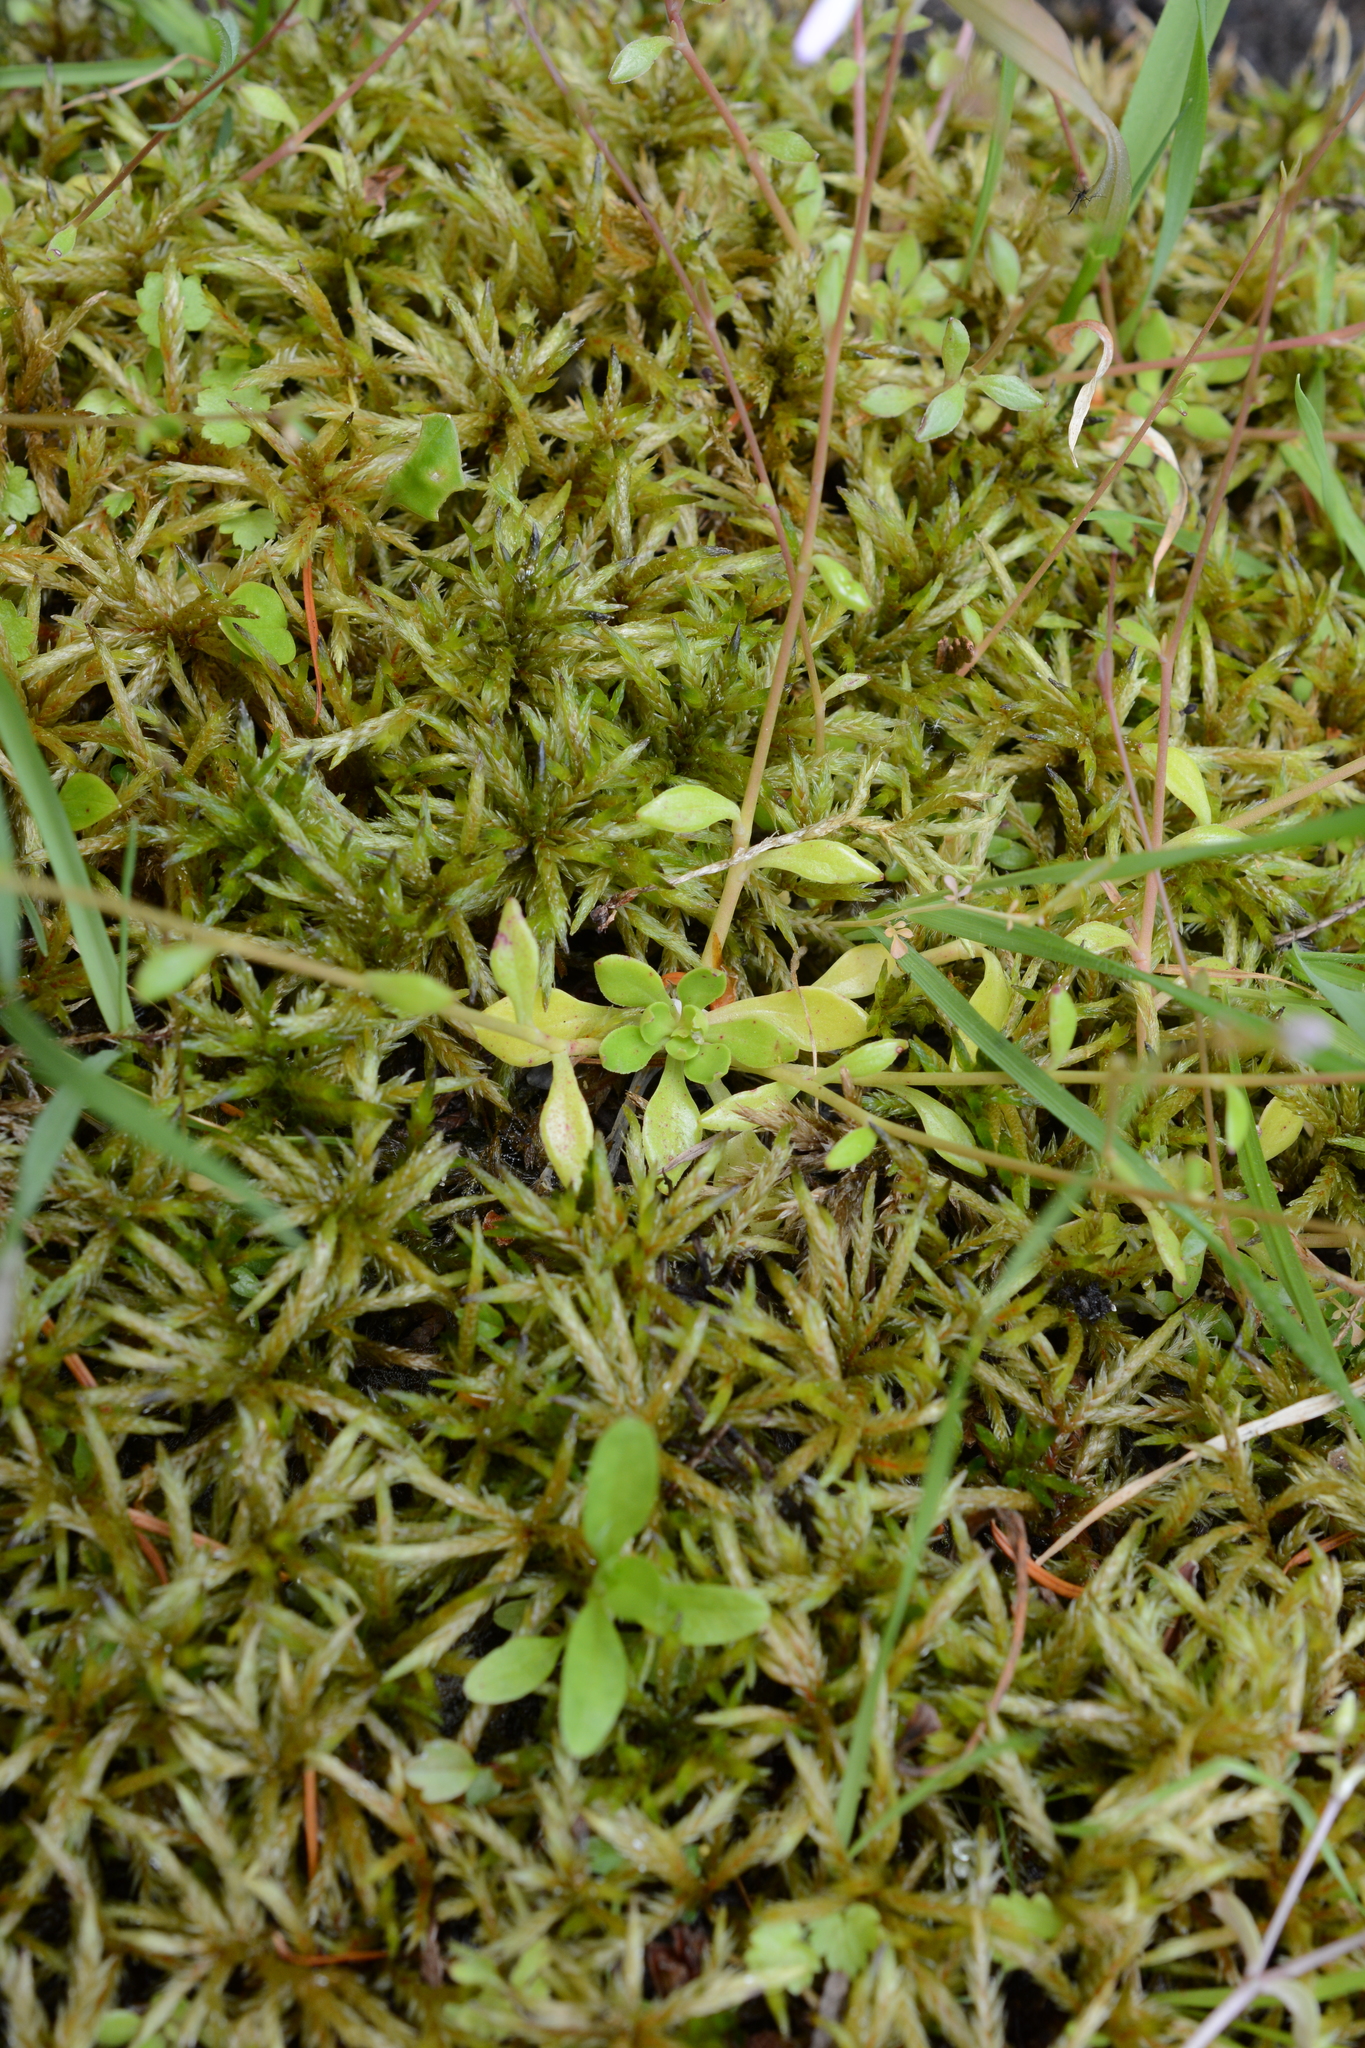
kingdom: Plantae
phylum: Tracheophyta
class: Magnoliopsida
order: Caryophyllales
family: Montiaceae
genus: Montia
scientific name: Montia parvifolia
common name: Small-leaved blinks
